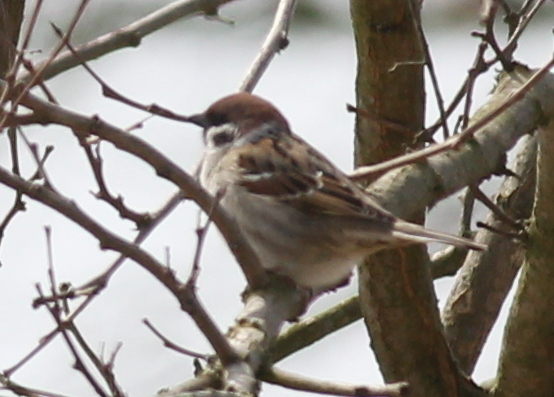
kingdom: Animalia
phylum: Chordata
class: Aves
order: Passeriformes
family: Passeridae
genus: Passer
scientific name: Passer montanus
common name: Eurasian tree sparrow
